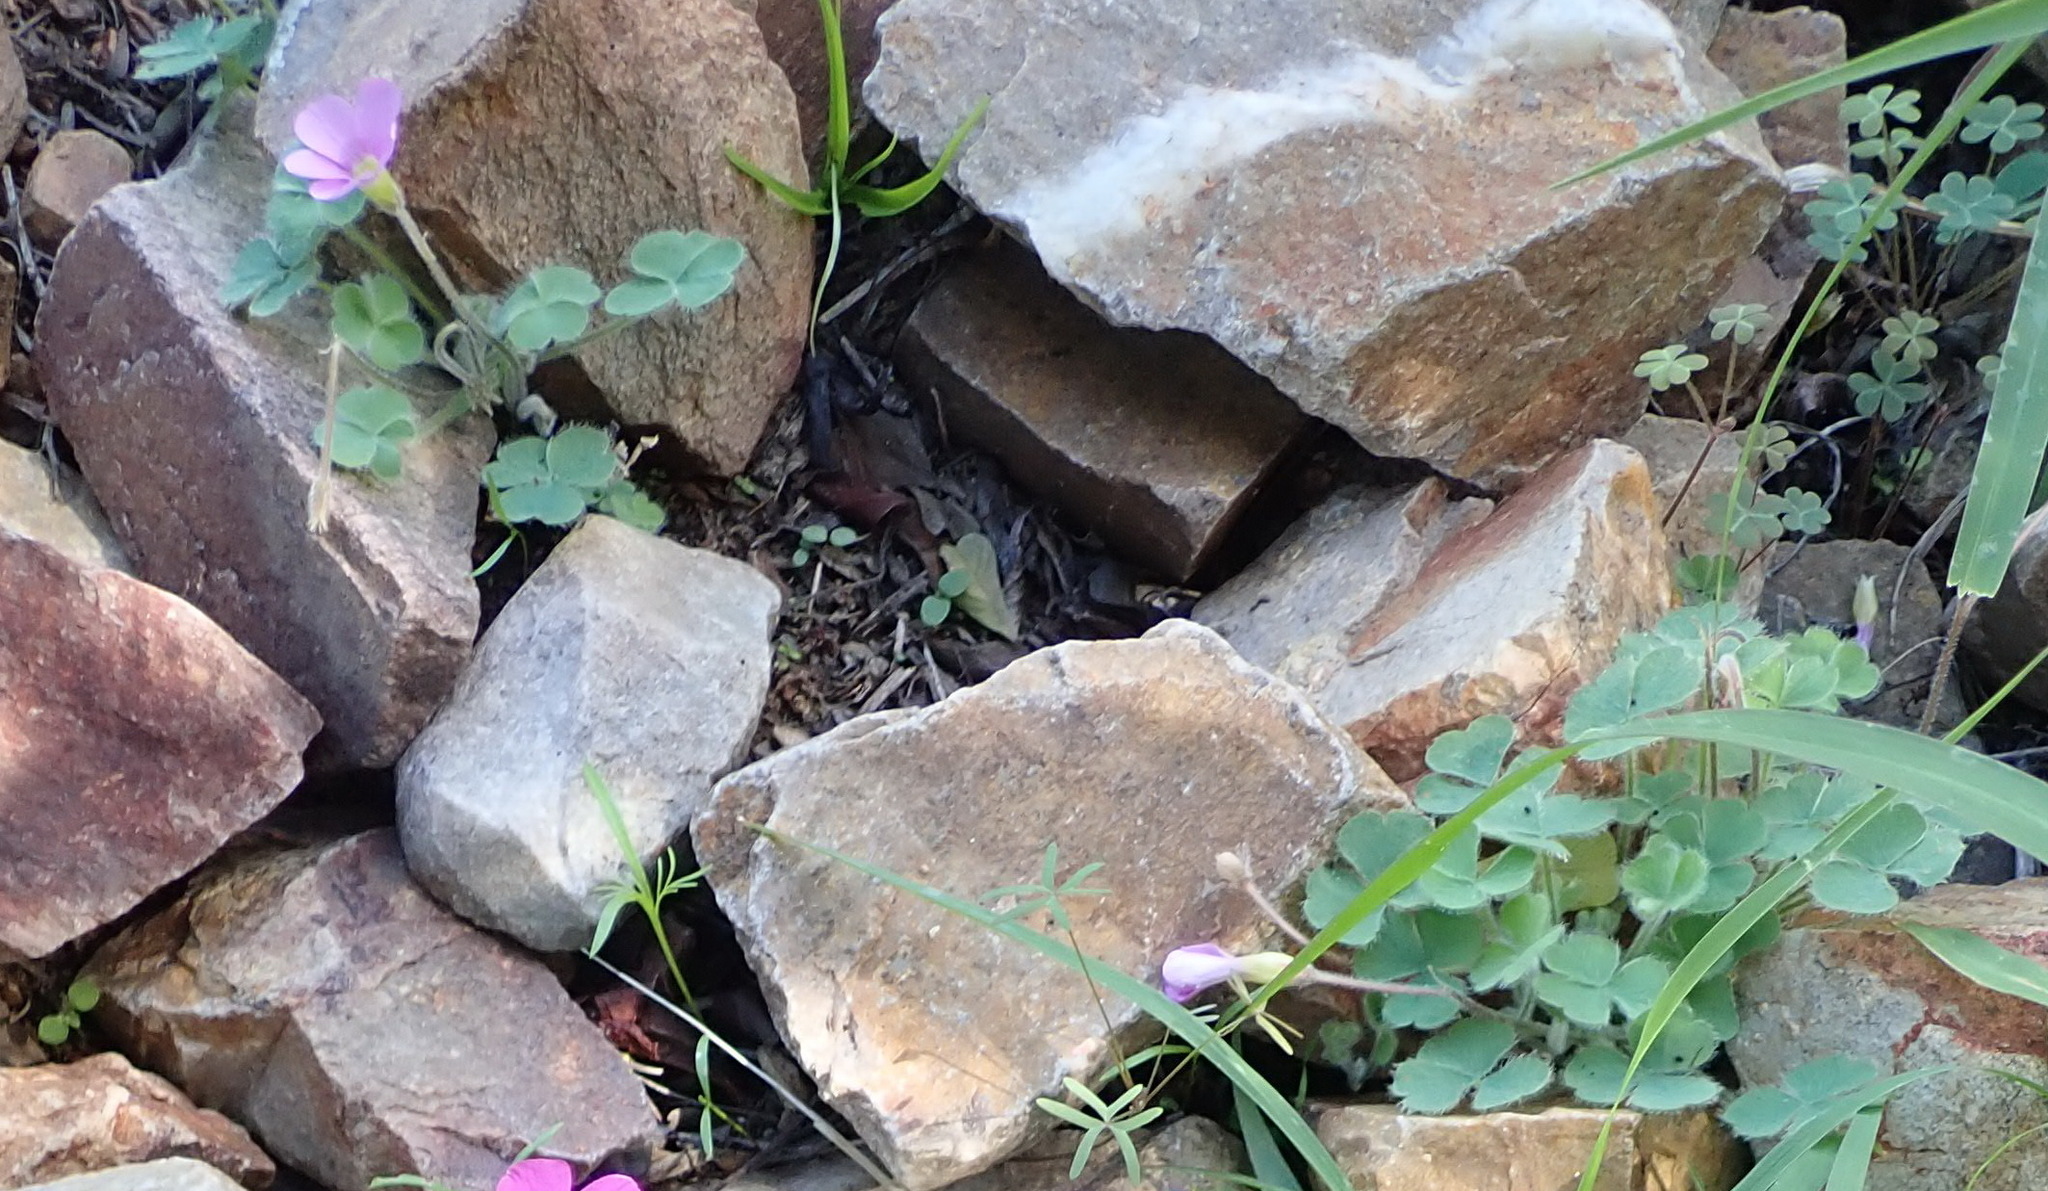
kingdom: Plantae
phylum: Tracheophyta
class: Magnoliopsida
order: Oxalidales
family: Oxalidaceae
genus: Oxalis
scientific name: Oxalis imbricata
